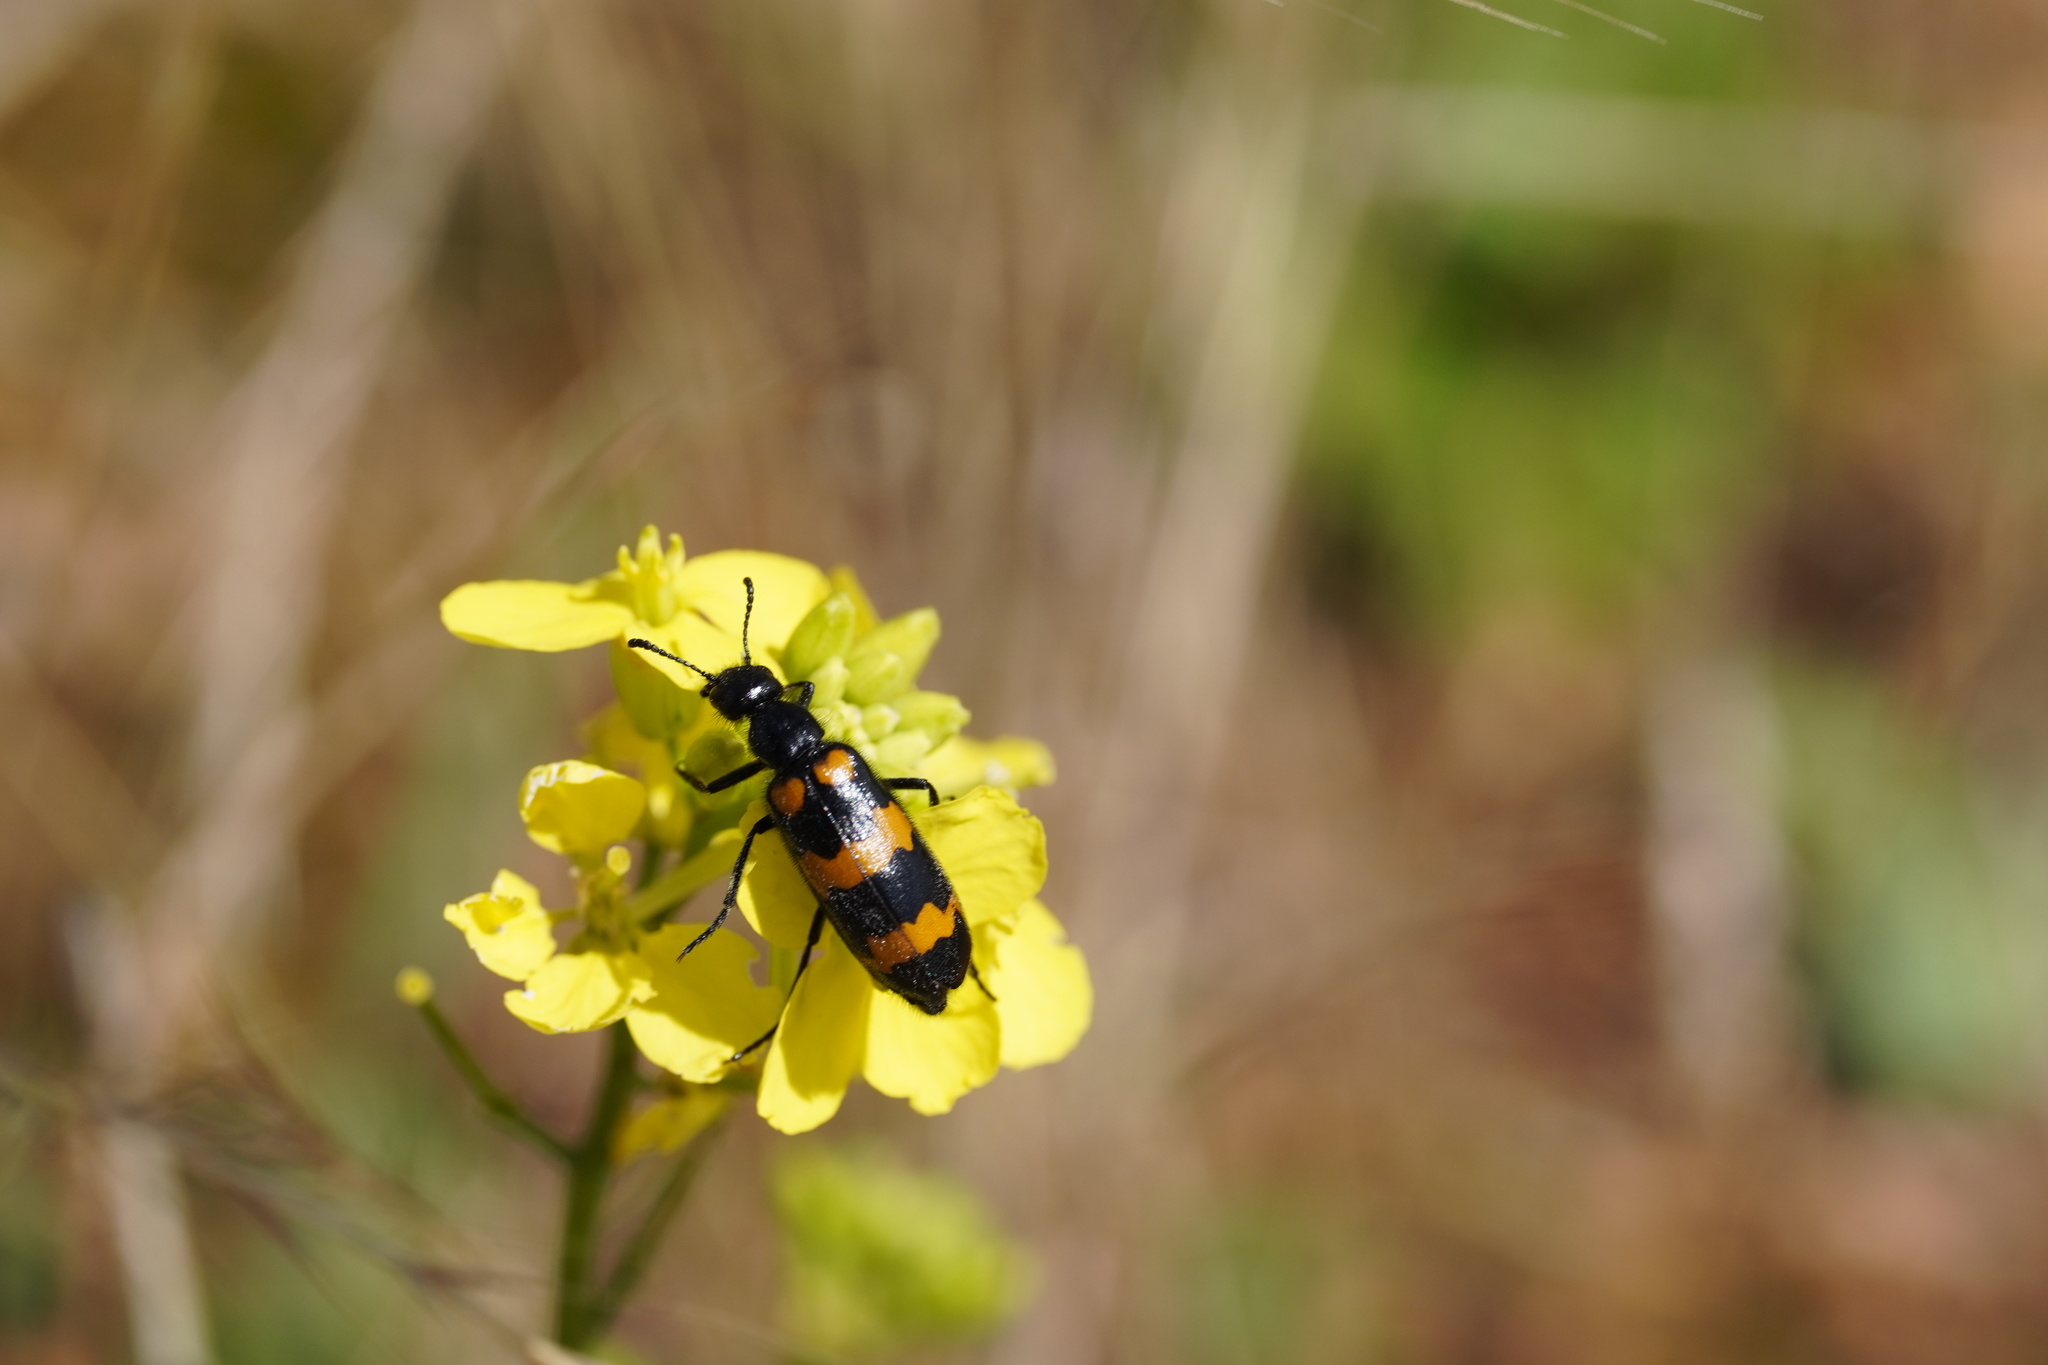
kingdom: Animalia
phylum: Arthropoda
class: Insecta
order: Coleoptera
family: Meloidae
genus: Mylabris
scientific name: Mylabris variabilis
